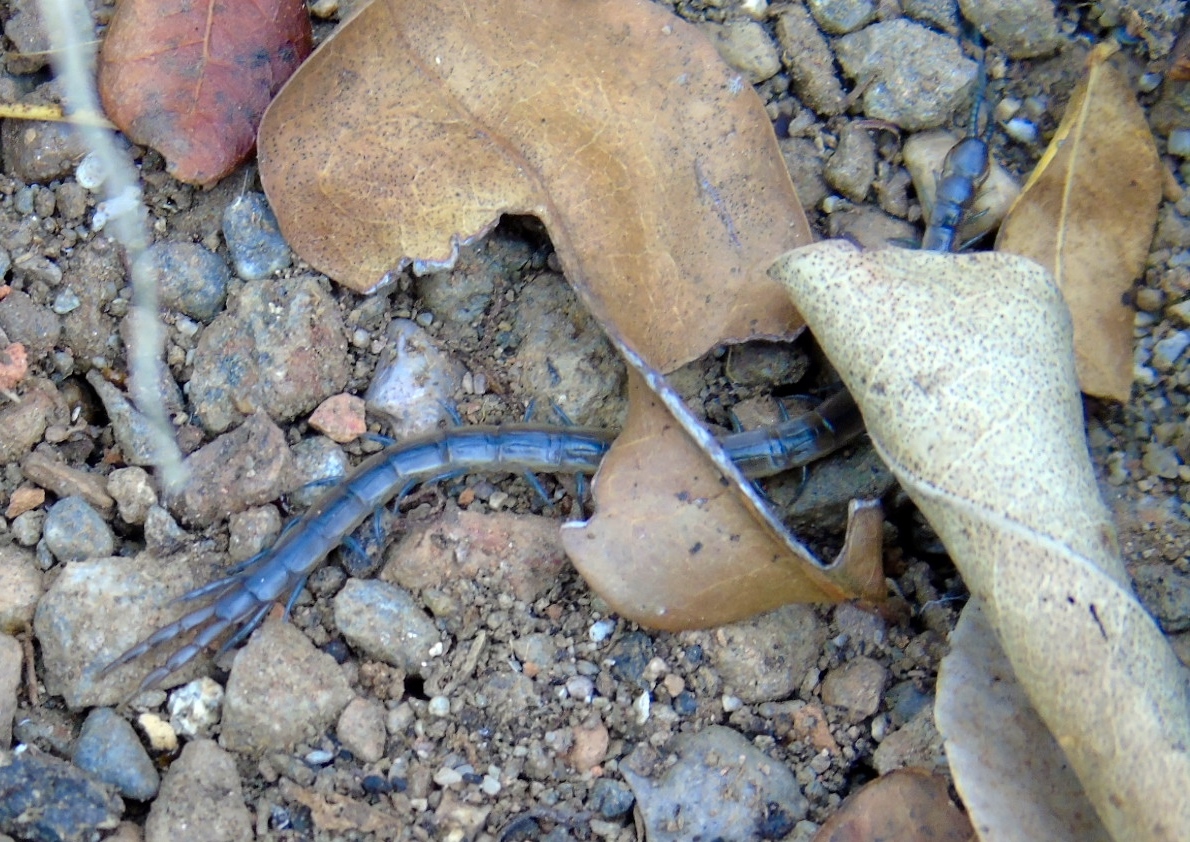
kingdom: Animalia
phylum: Arthropoda
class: Chilopoda
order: Scolopendromorpha
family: Scolopendridae
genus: Arthrorhabdus
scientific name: Arthrorhabdus pygmaeus
